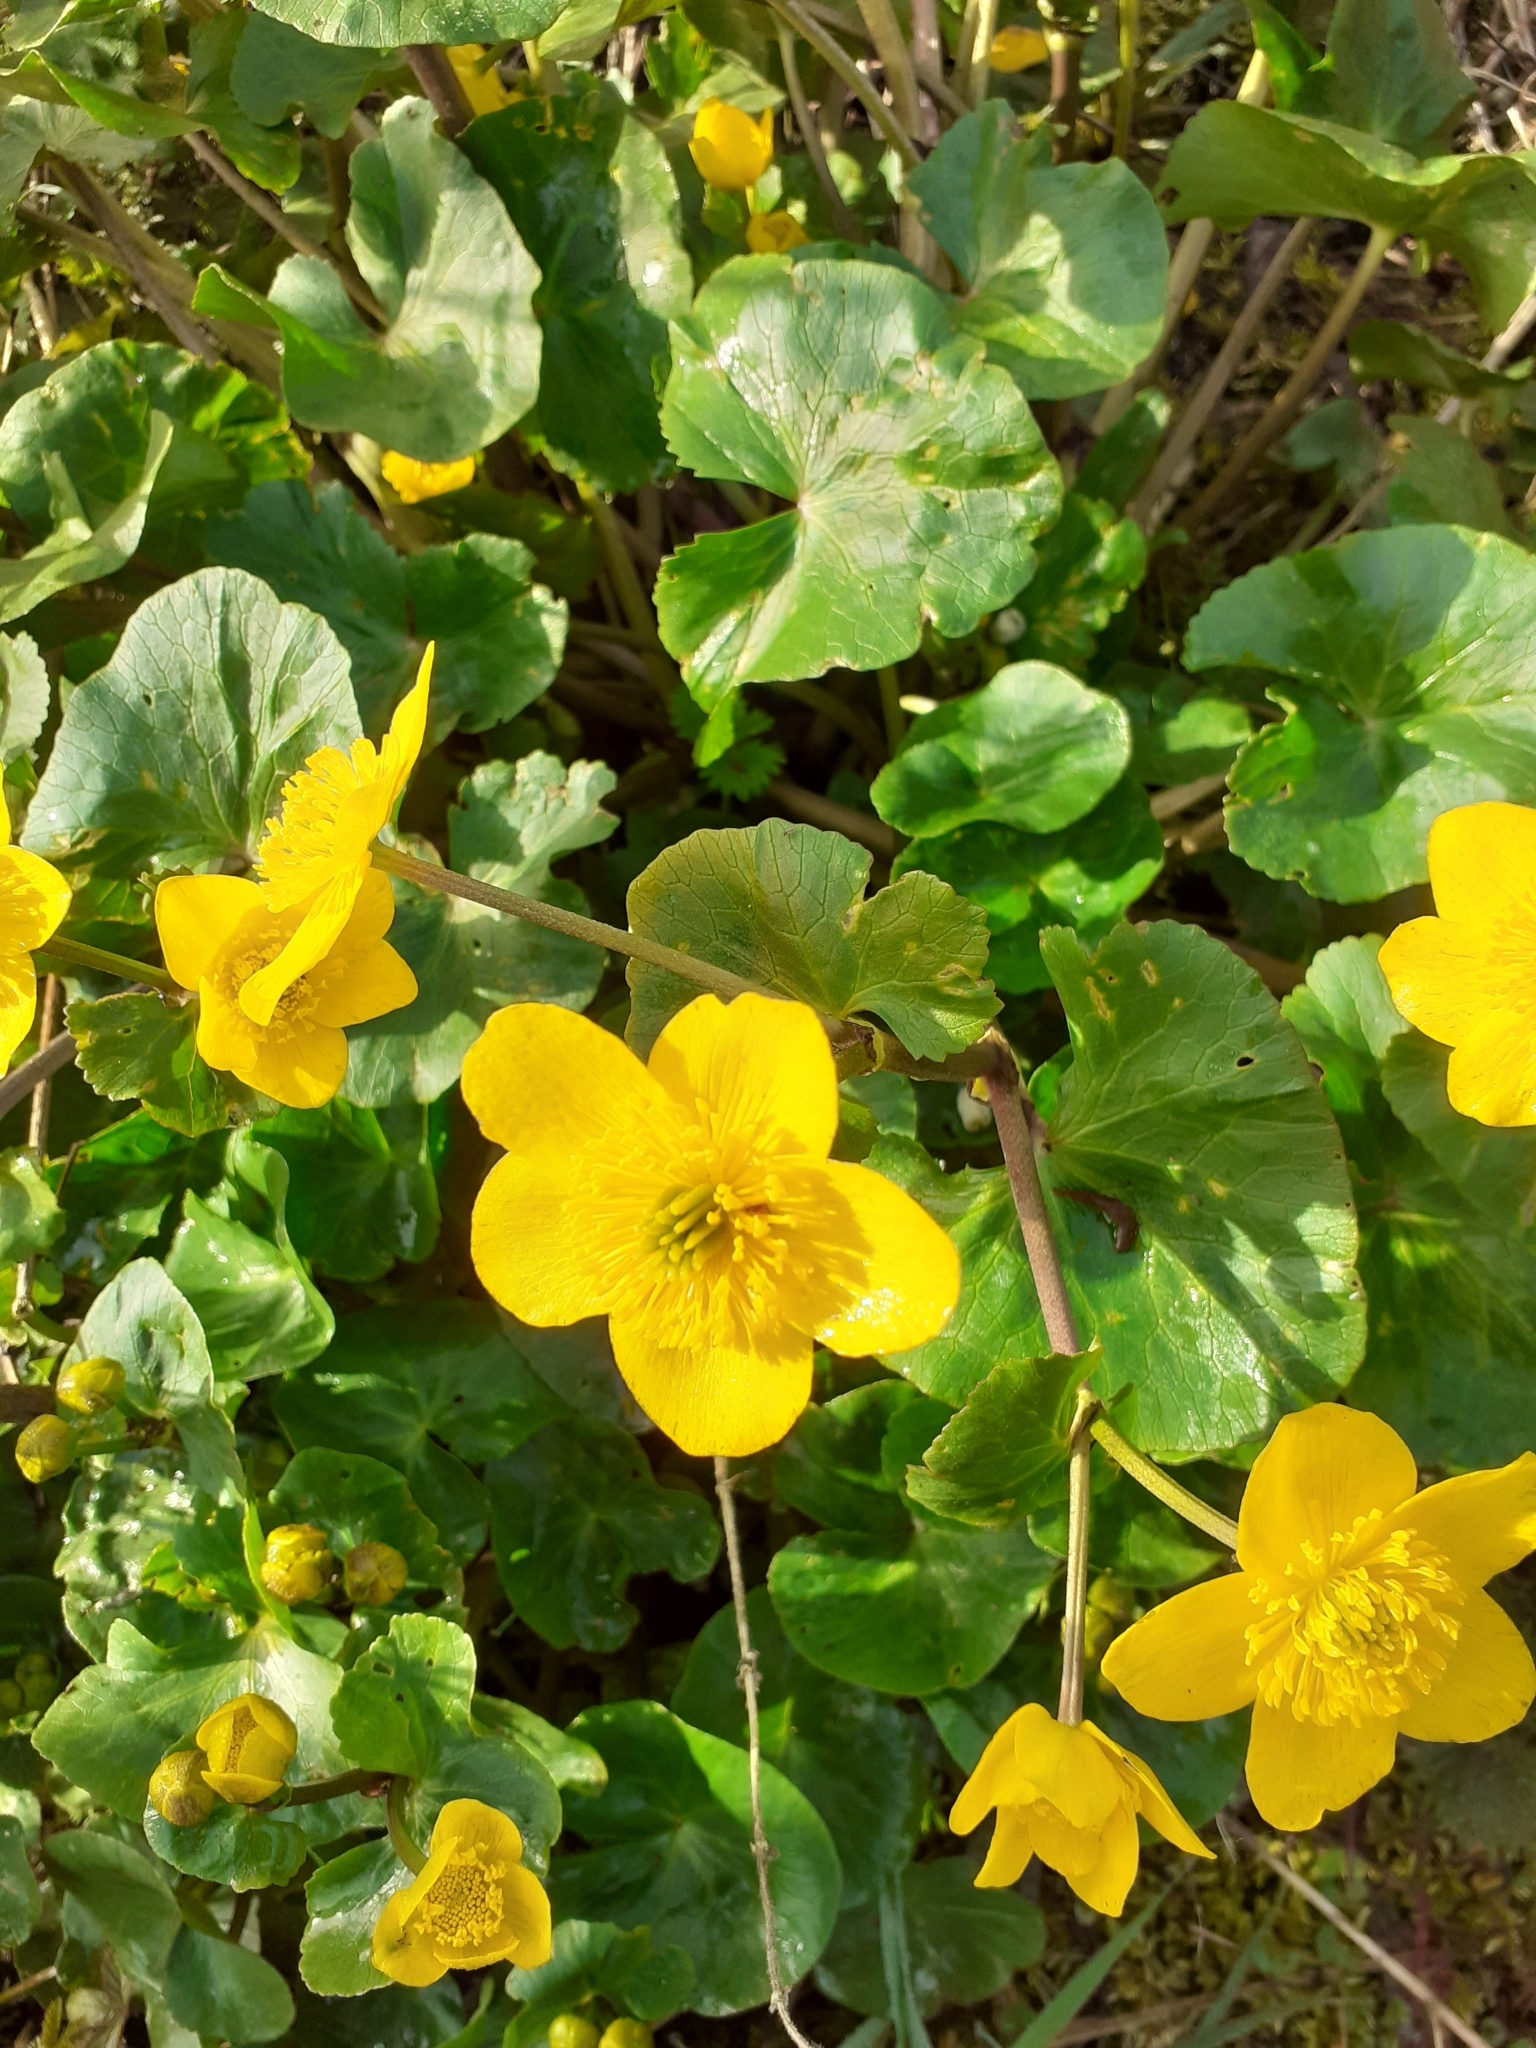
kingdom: Plantae
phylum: Tracheophyta
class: Magnoliopsida
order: Ranunculales
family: Ranunculaceae
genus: Caltha
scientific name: Caltha palustris
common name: Marsh marigold
